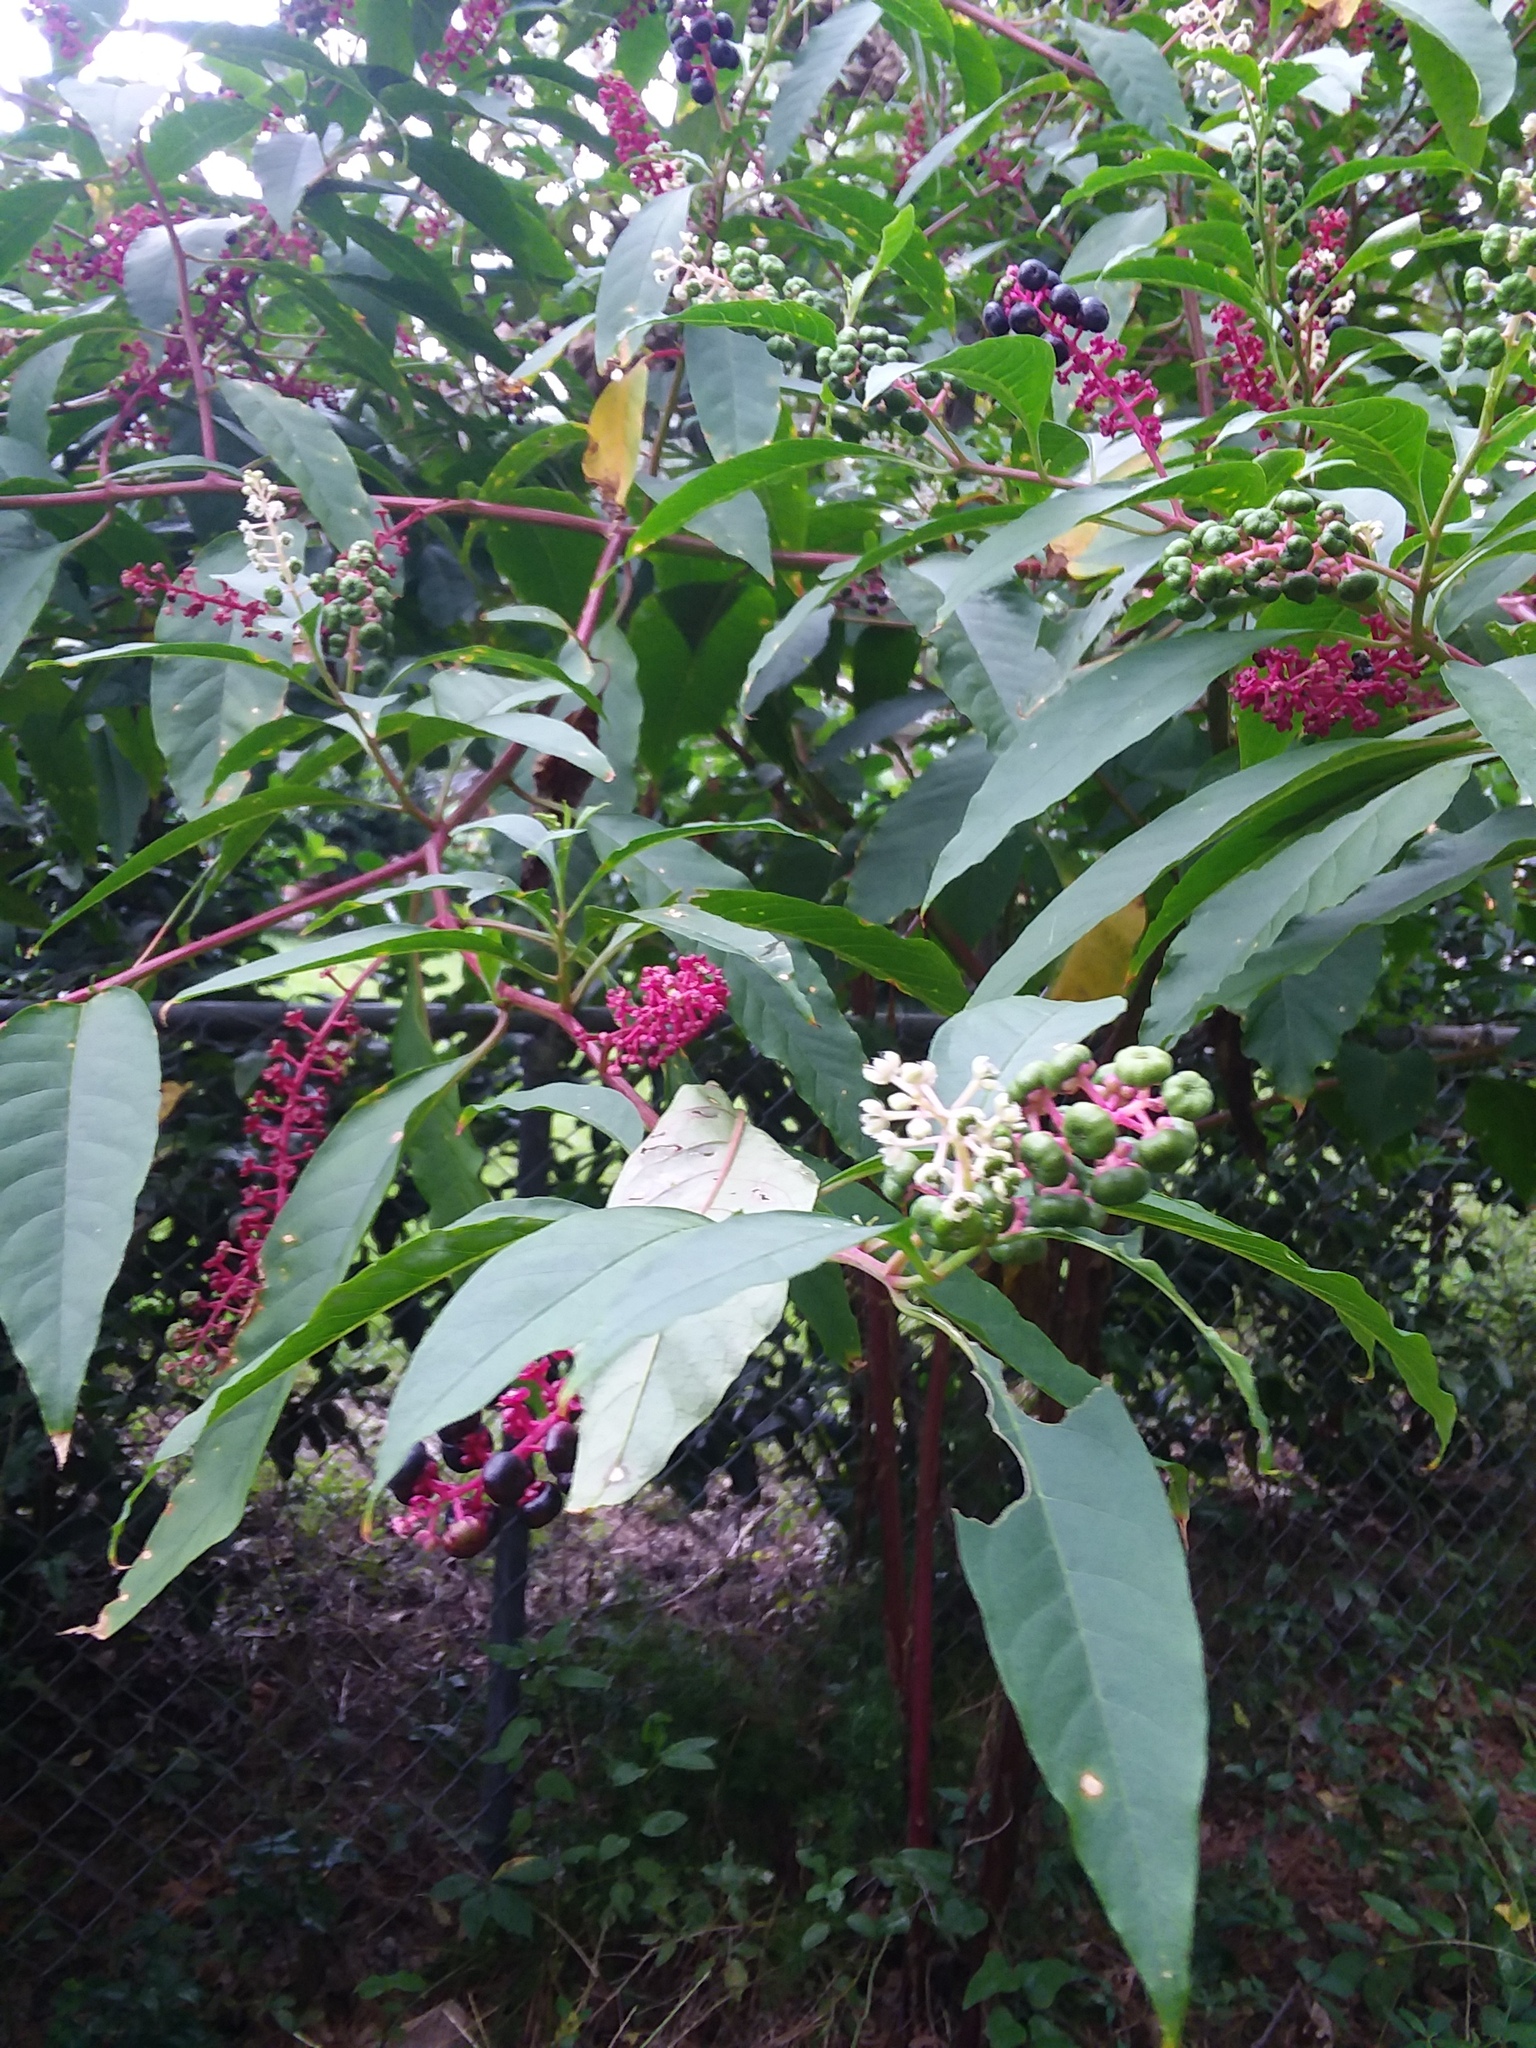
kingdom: Plantae
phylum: Tracheophyta
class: Magnoliopsida
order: Caryophyllales
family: Phytolaccaceae
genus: Phytolacca
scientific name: Phytolacca americana
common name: American pokeweed
